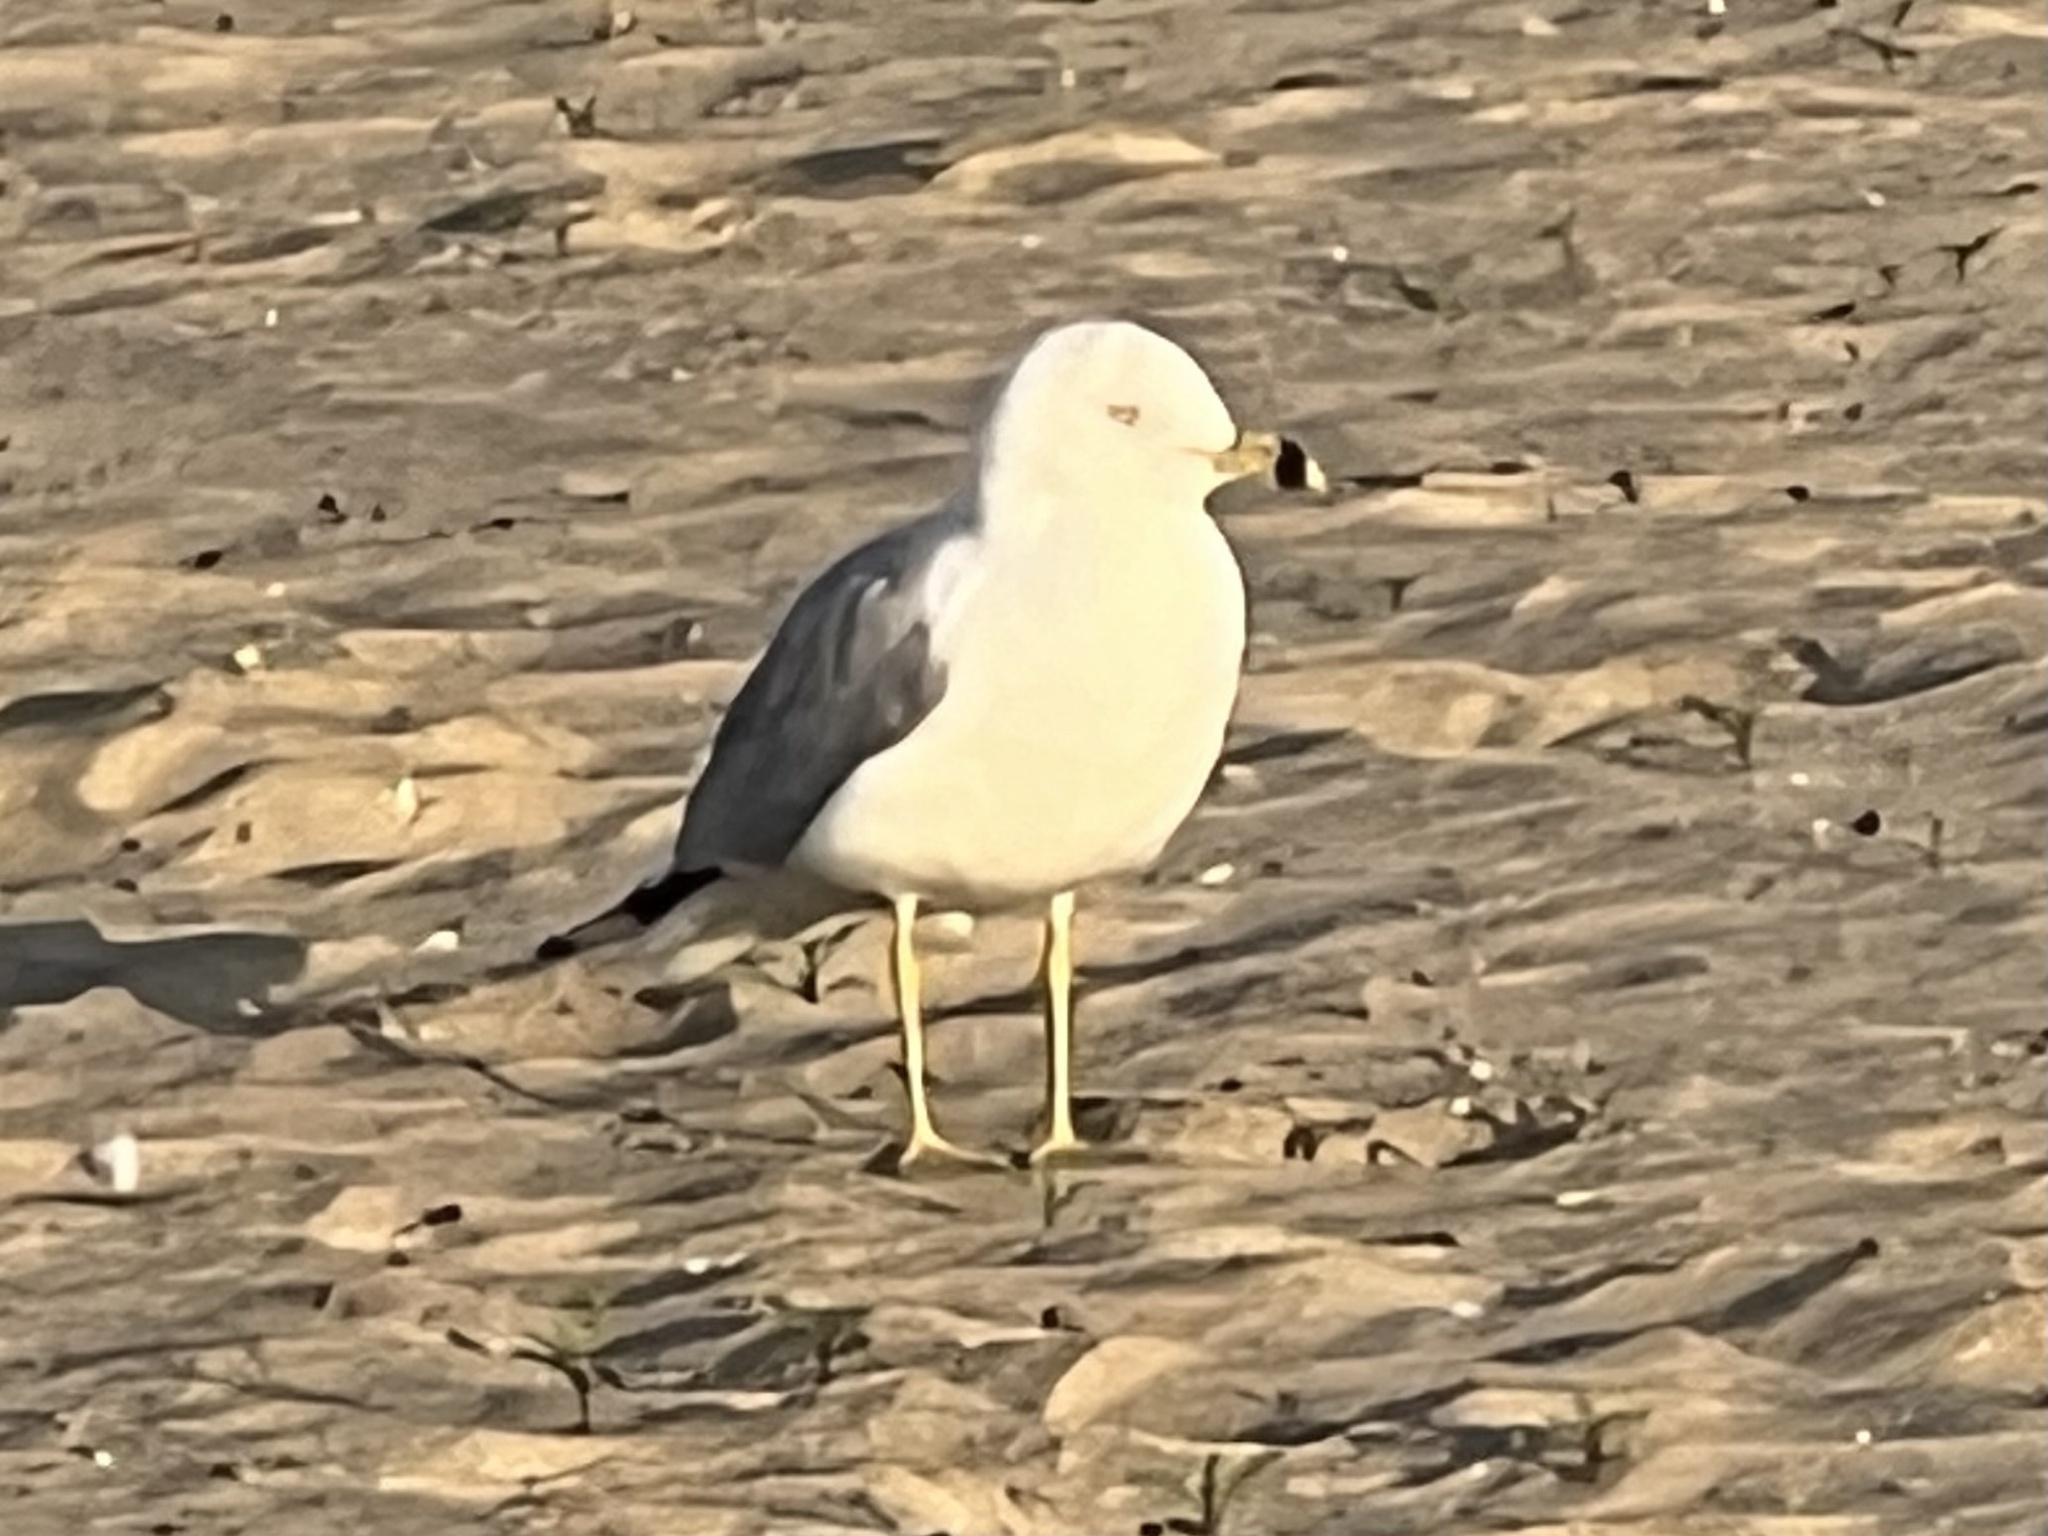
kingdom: Animalia
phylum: Chordata
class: Aves
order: Charadriiformes
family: Laridae
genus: Larus
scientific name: Larus delawarensis
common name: Ring-billed gull
